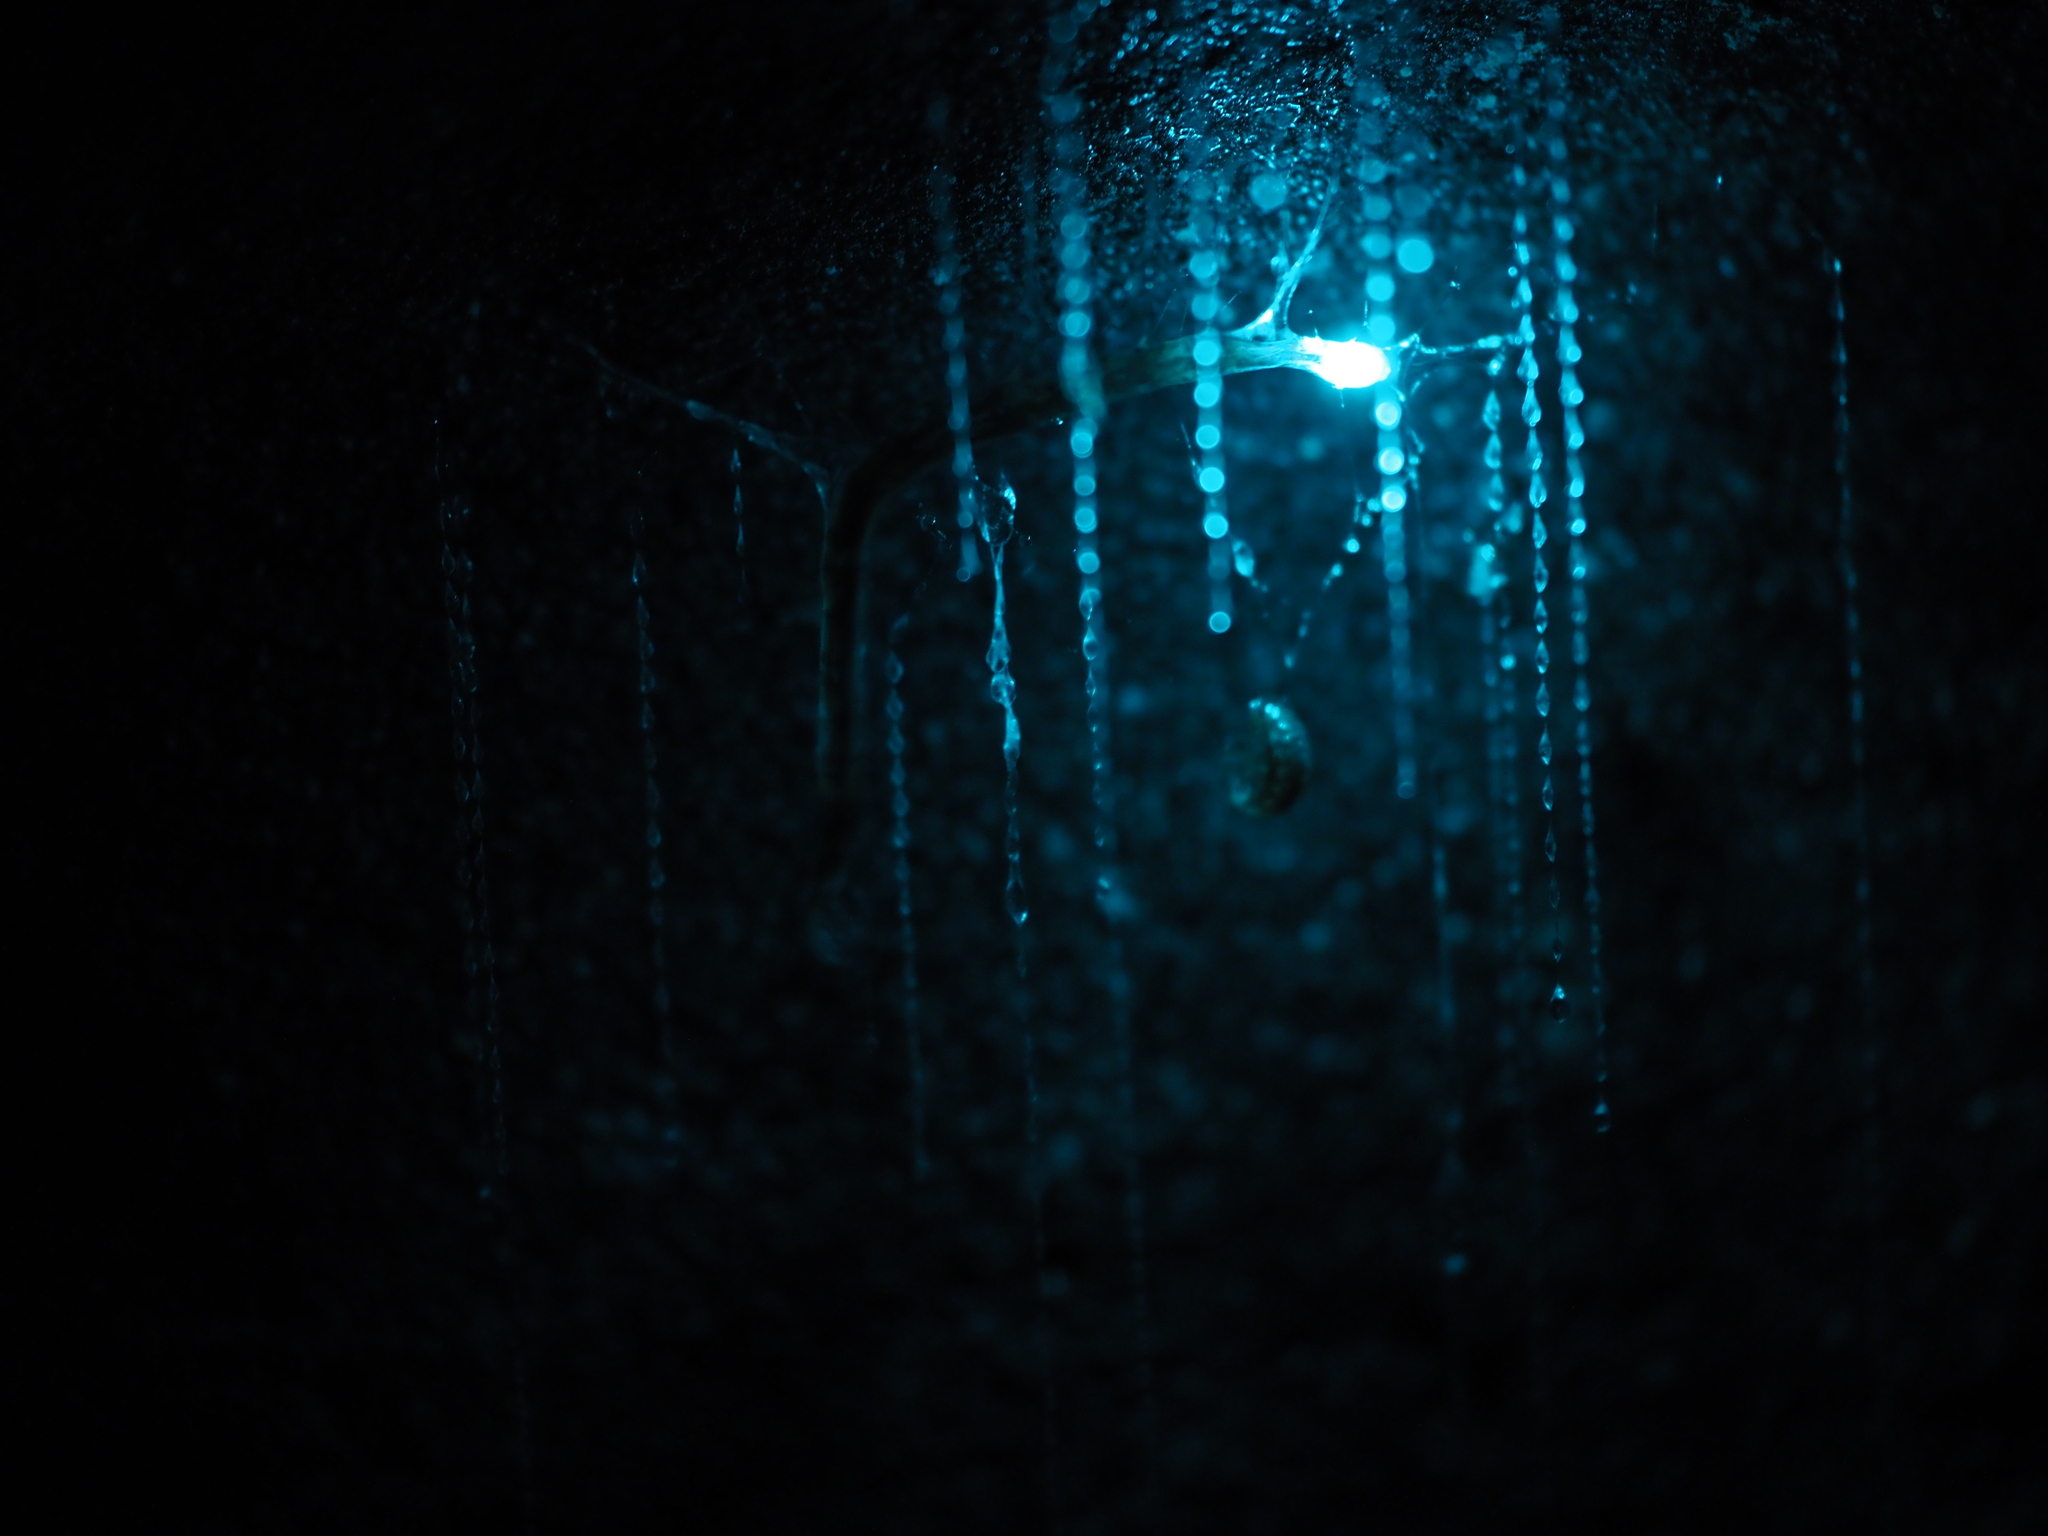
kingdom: Animalia
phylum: Arthropoda
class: Insecta
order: Diptera
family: Keroplatidae
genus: Arachnocampa
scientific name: Arachnocampa luminosa
